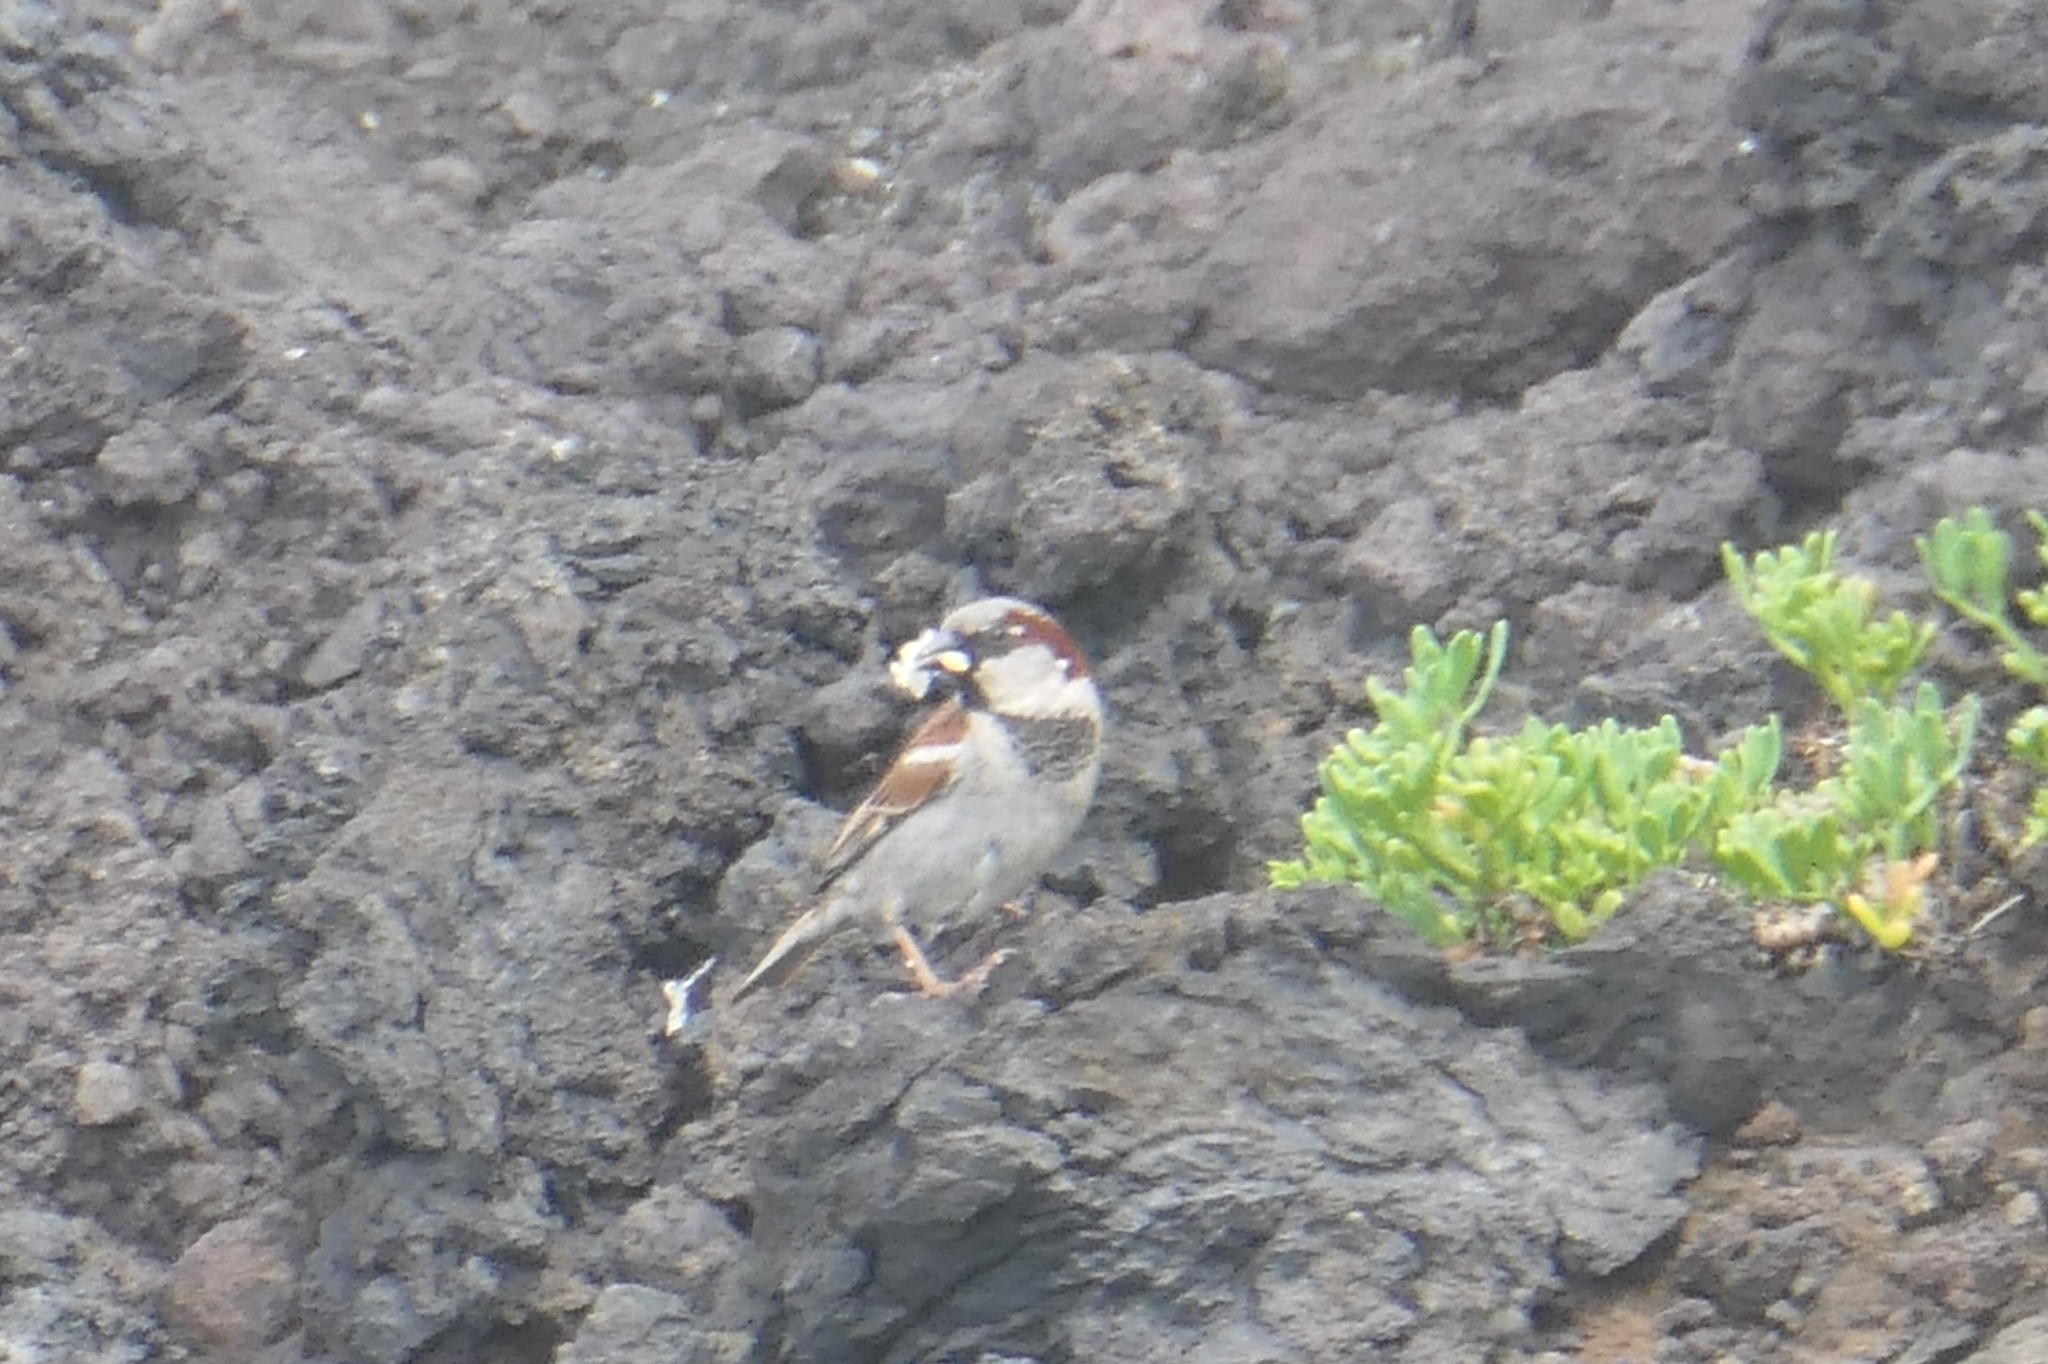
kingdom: Animalia
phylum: Chordata
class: Aves
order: Passeriformes
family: Passeridae
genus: Passer
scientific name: Passer domesticus
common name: House sparrow
